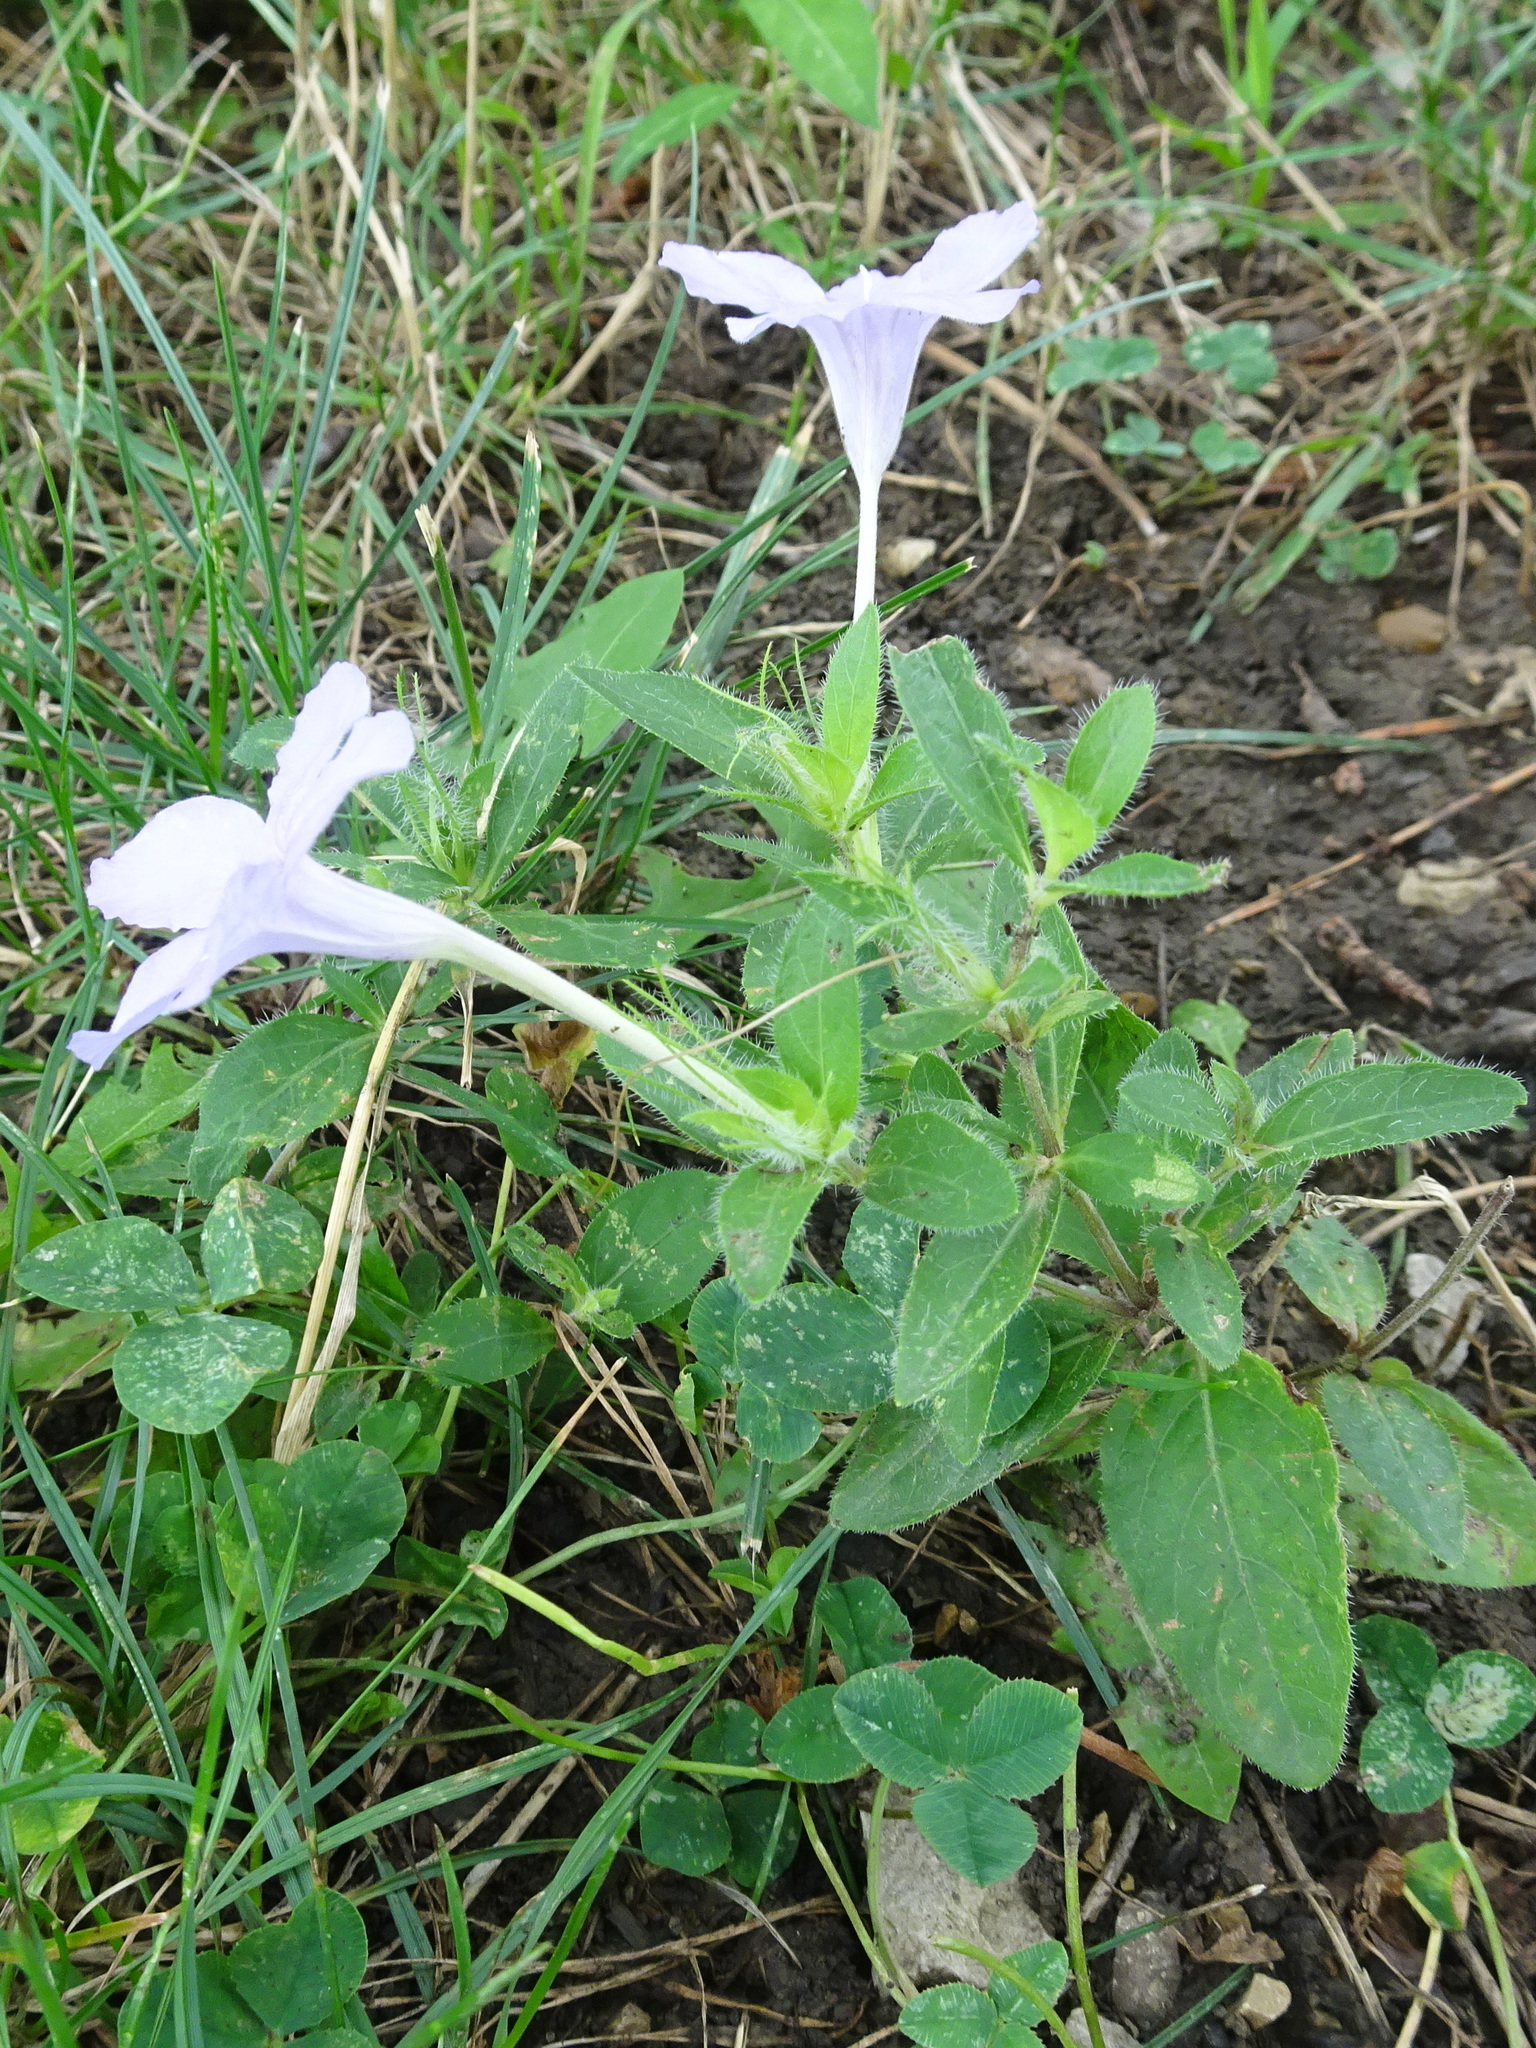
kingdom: Plantae
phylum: Tracheophyta
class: Magnoliopsida
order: Lamiales
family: Acanthaceae
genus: Ruellia
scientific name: Ruellia humilis
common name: Fringe-leaf ruellia
